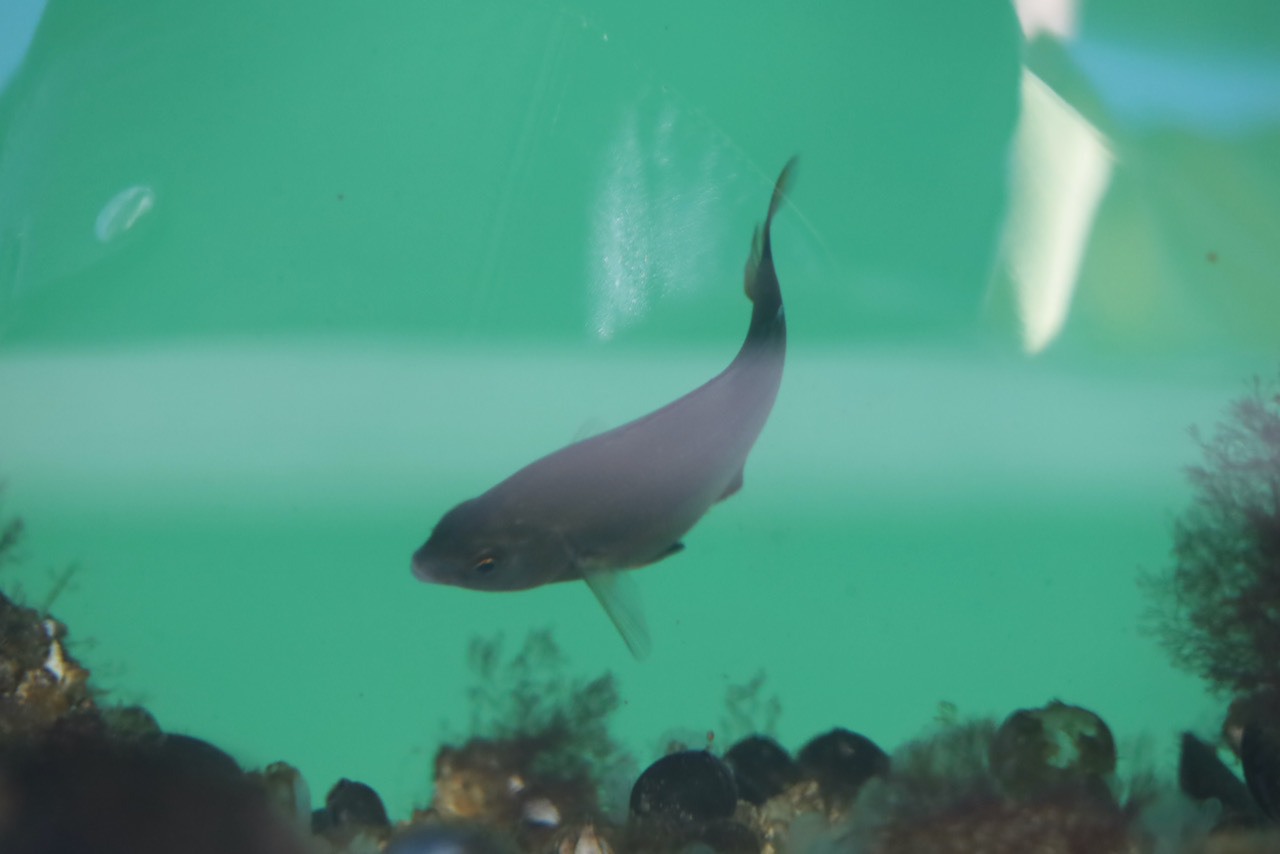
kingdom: Animalia
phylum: Chordata
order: Perciformes
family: Embiotocidae
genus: Embiotoca
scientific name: Embiotoca lateralis
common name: Striped surfperch
